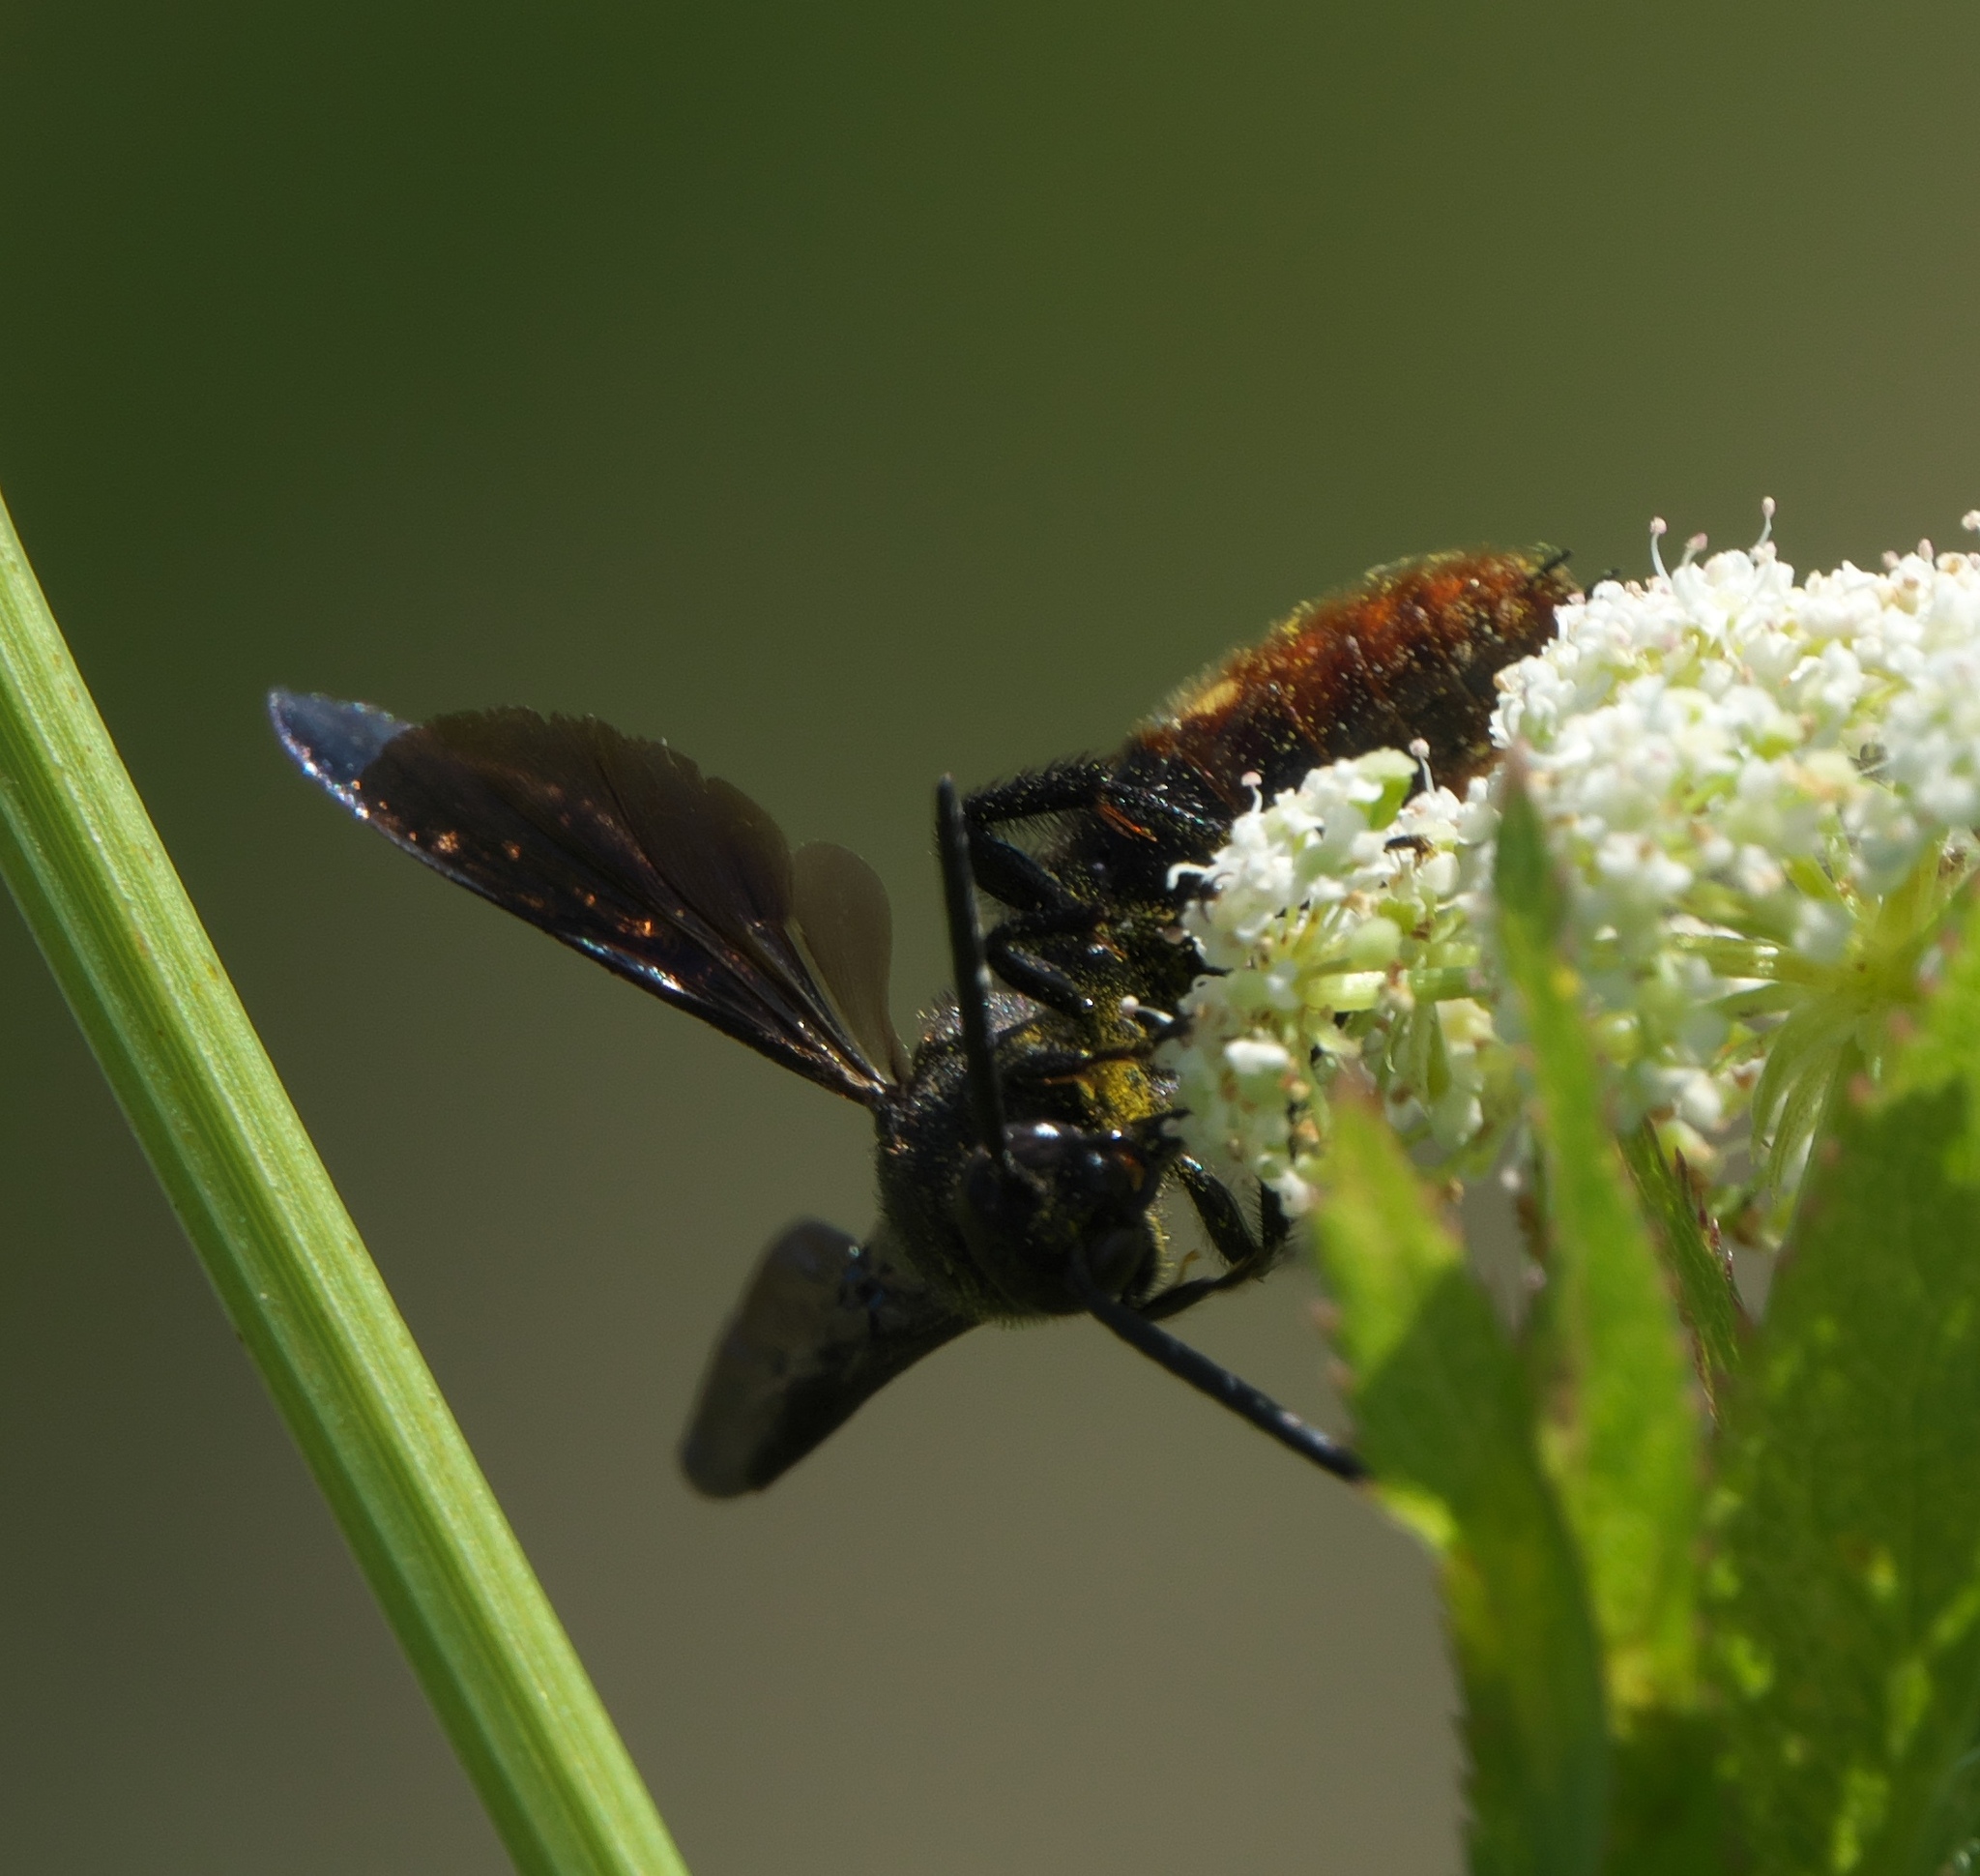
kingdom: Animalia
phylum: Arthropoda
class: Insecta
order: Hymenoptera
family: Scoliidae
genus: Scolia
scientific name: Scolia dubia
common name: Blue-winged scoliid wasp
